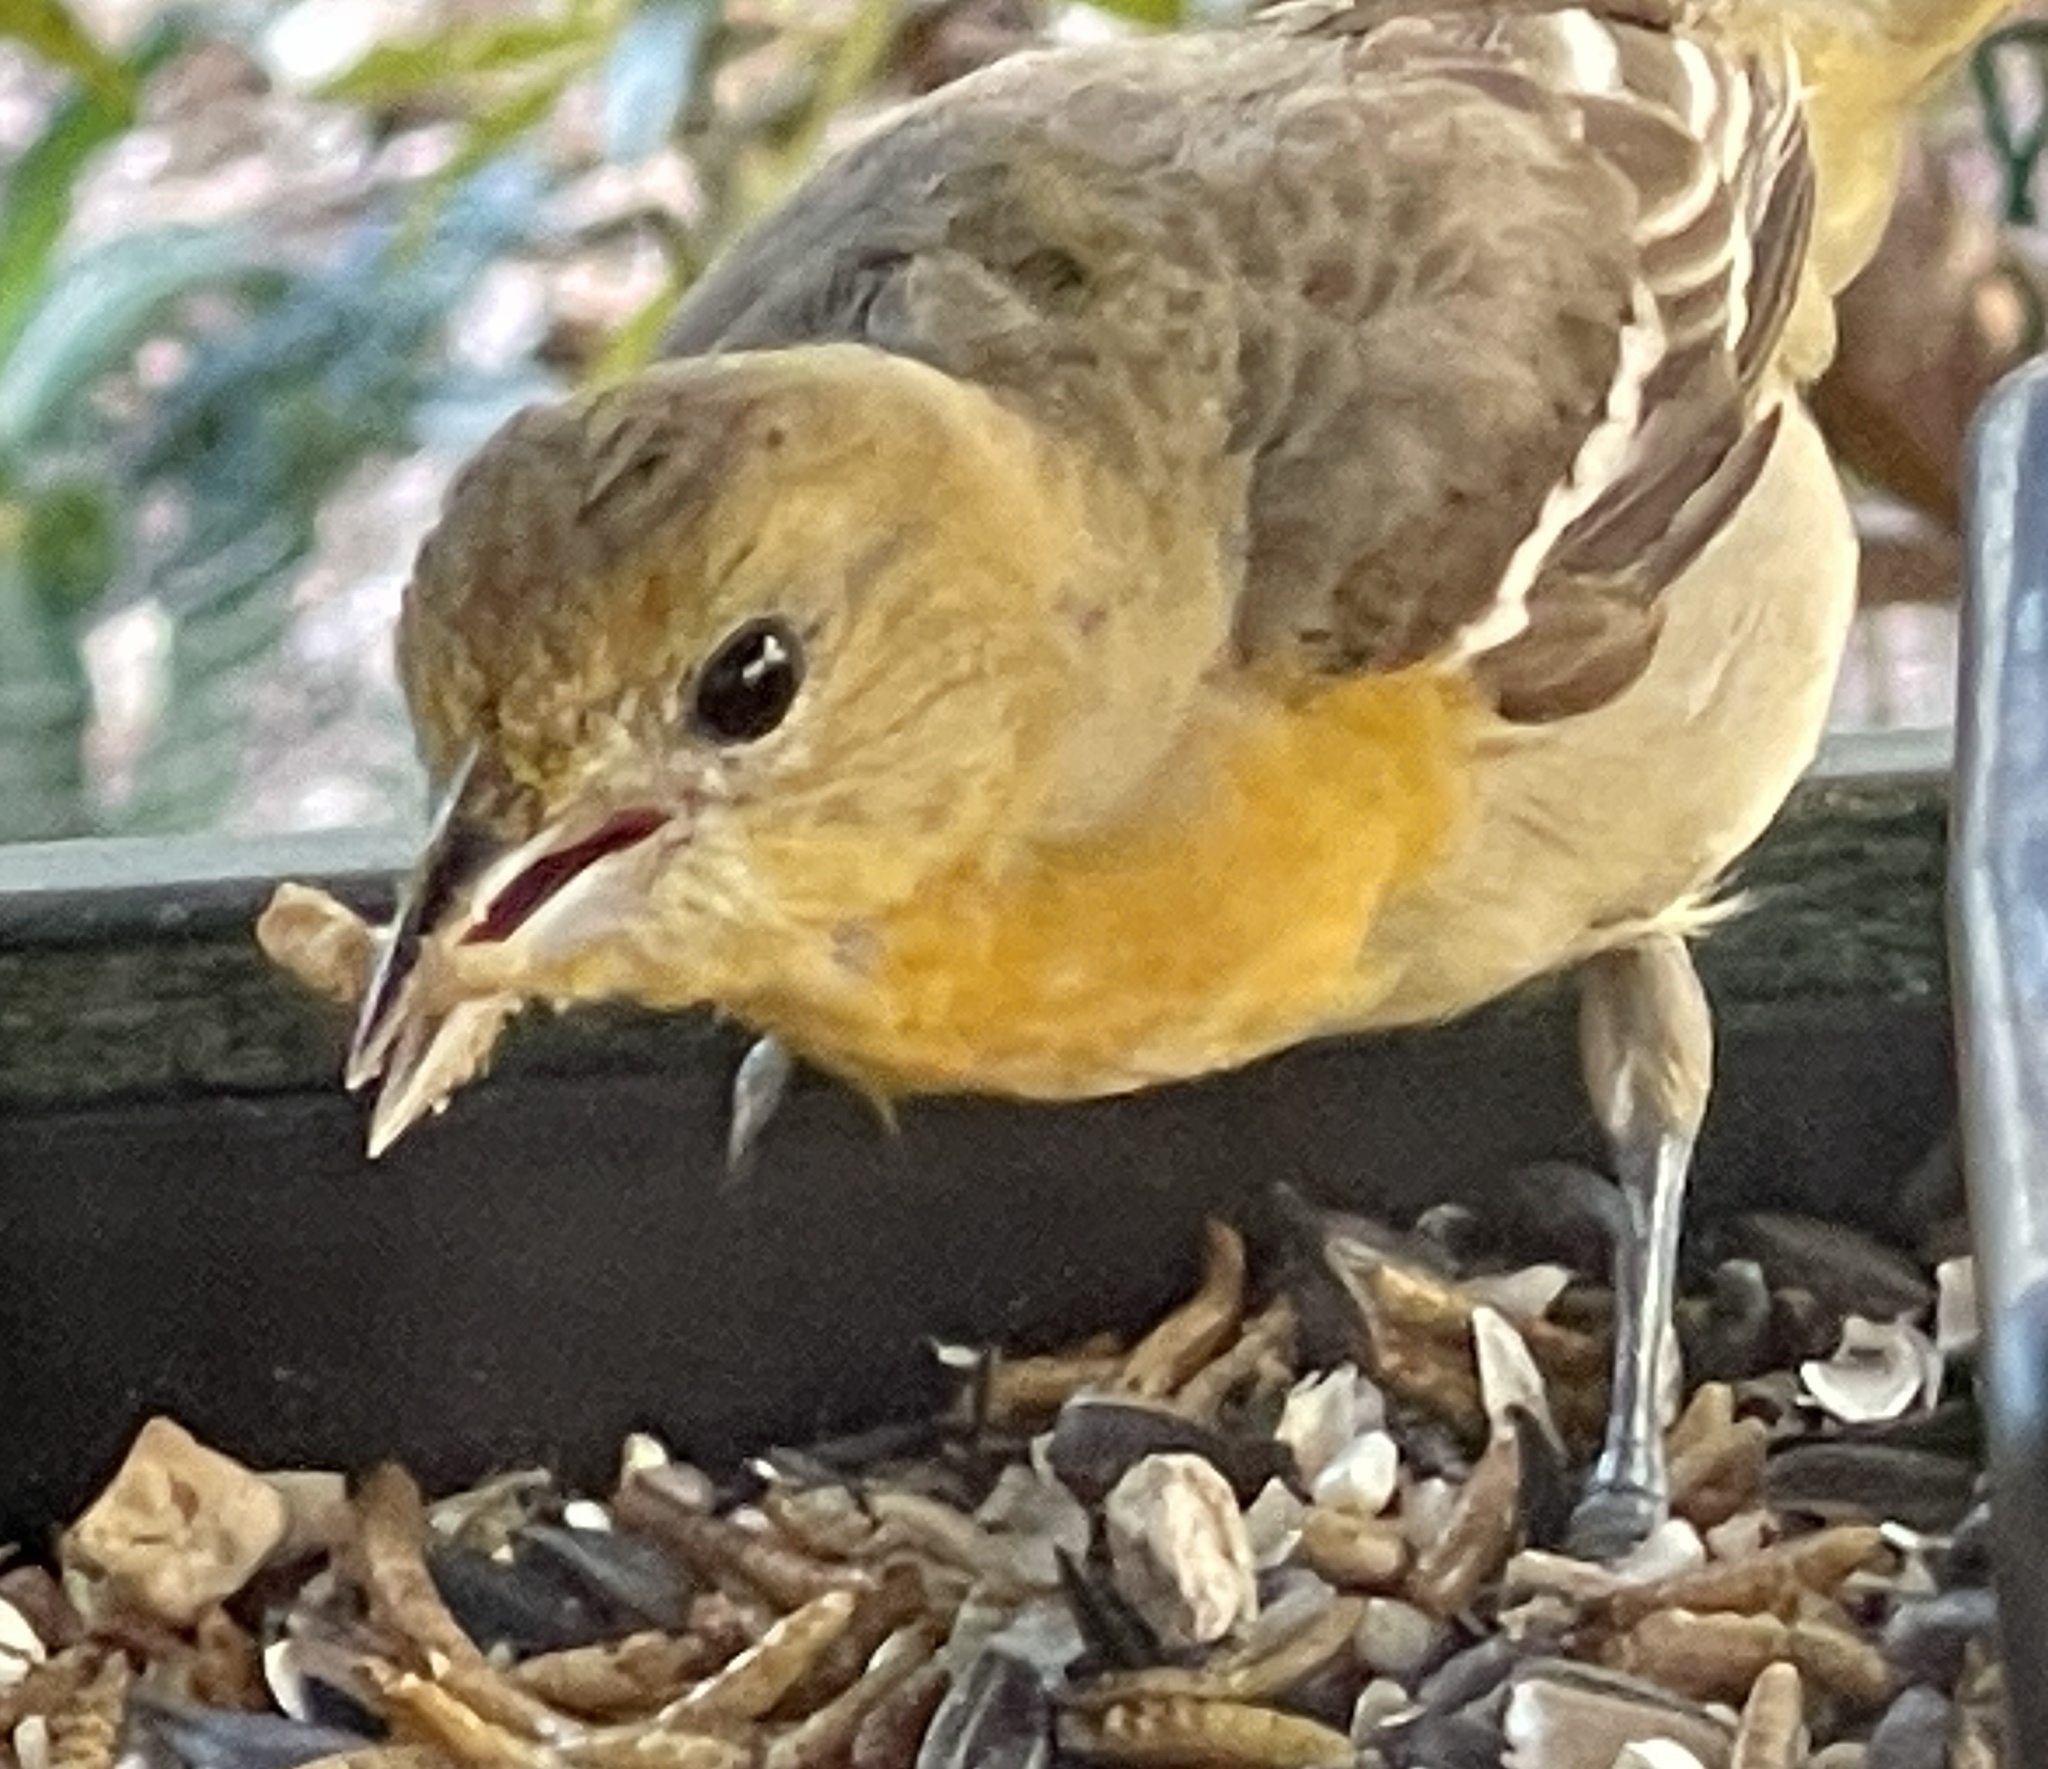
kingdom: Animalia
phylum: Chordata
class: Aves
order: Passeriformes
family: Icteridae
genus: Icterus
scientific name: Icterus galbula
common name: Baltimore oriole
